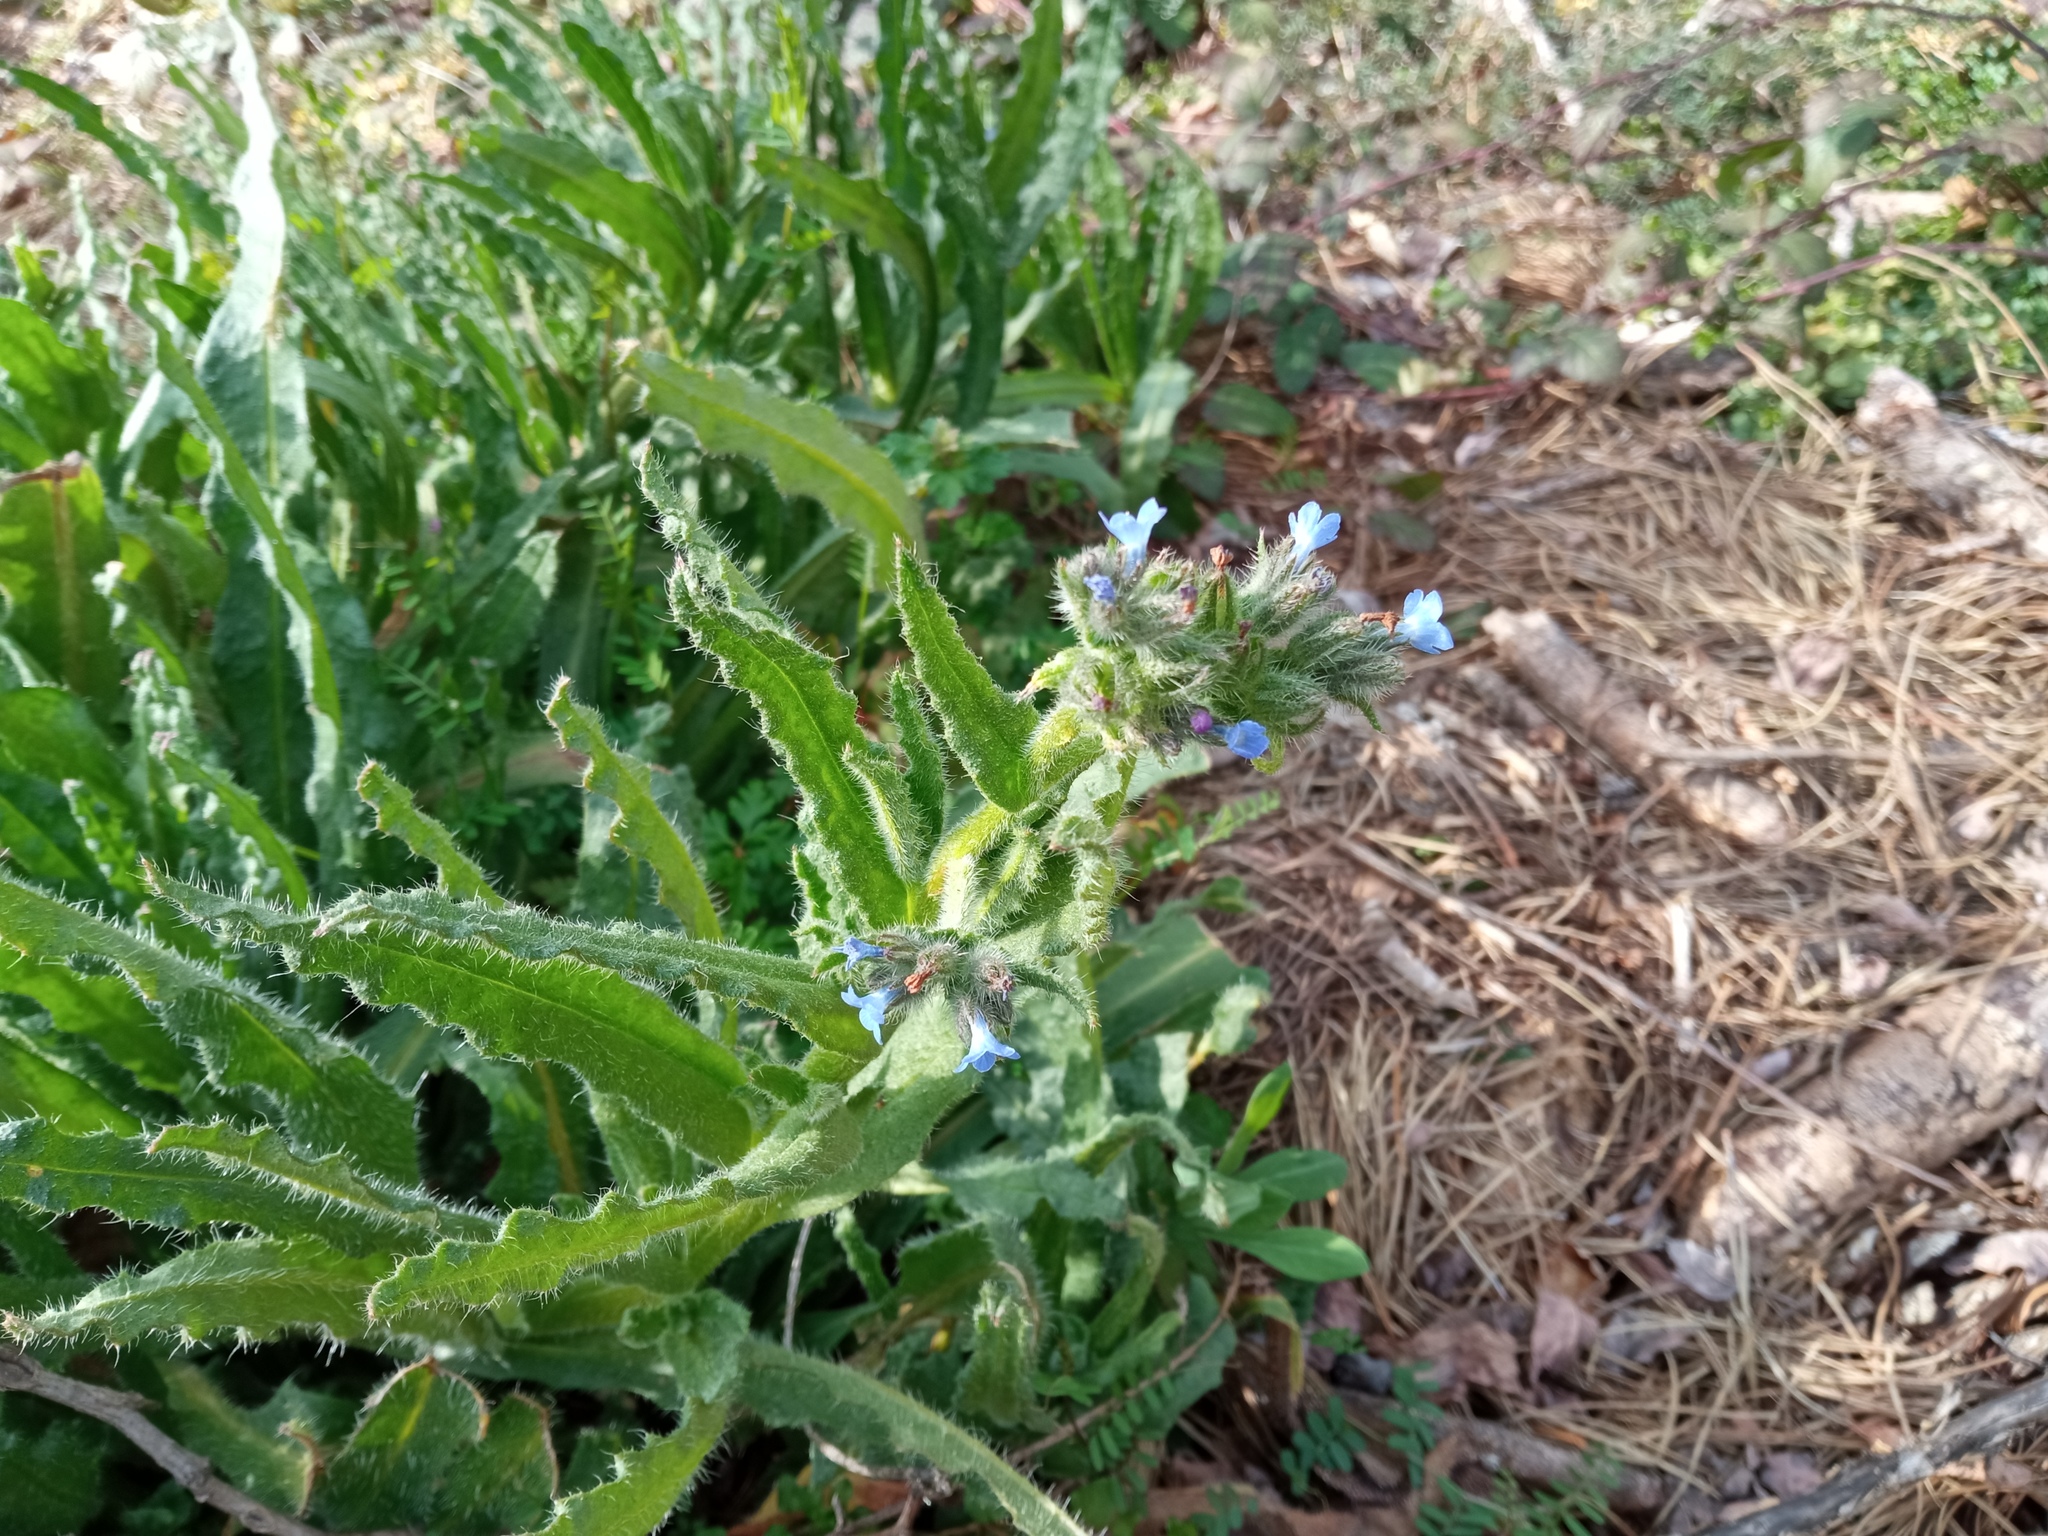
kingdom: Plantae
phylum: Tracheophyta
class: Magnoliopsida
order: Boraginales
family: Boraginaceae
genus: Lycopsis
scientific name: Lycopsis arvensis
